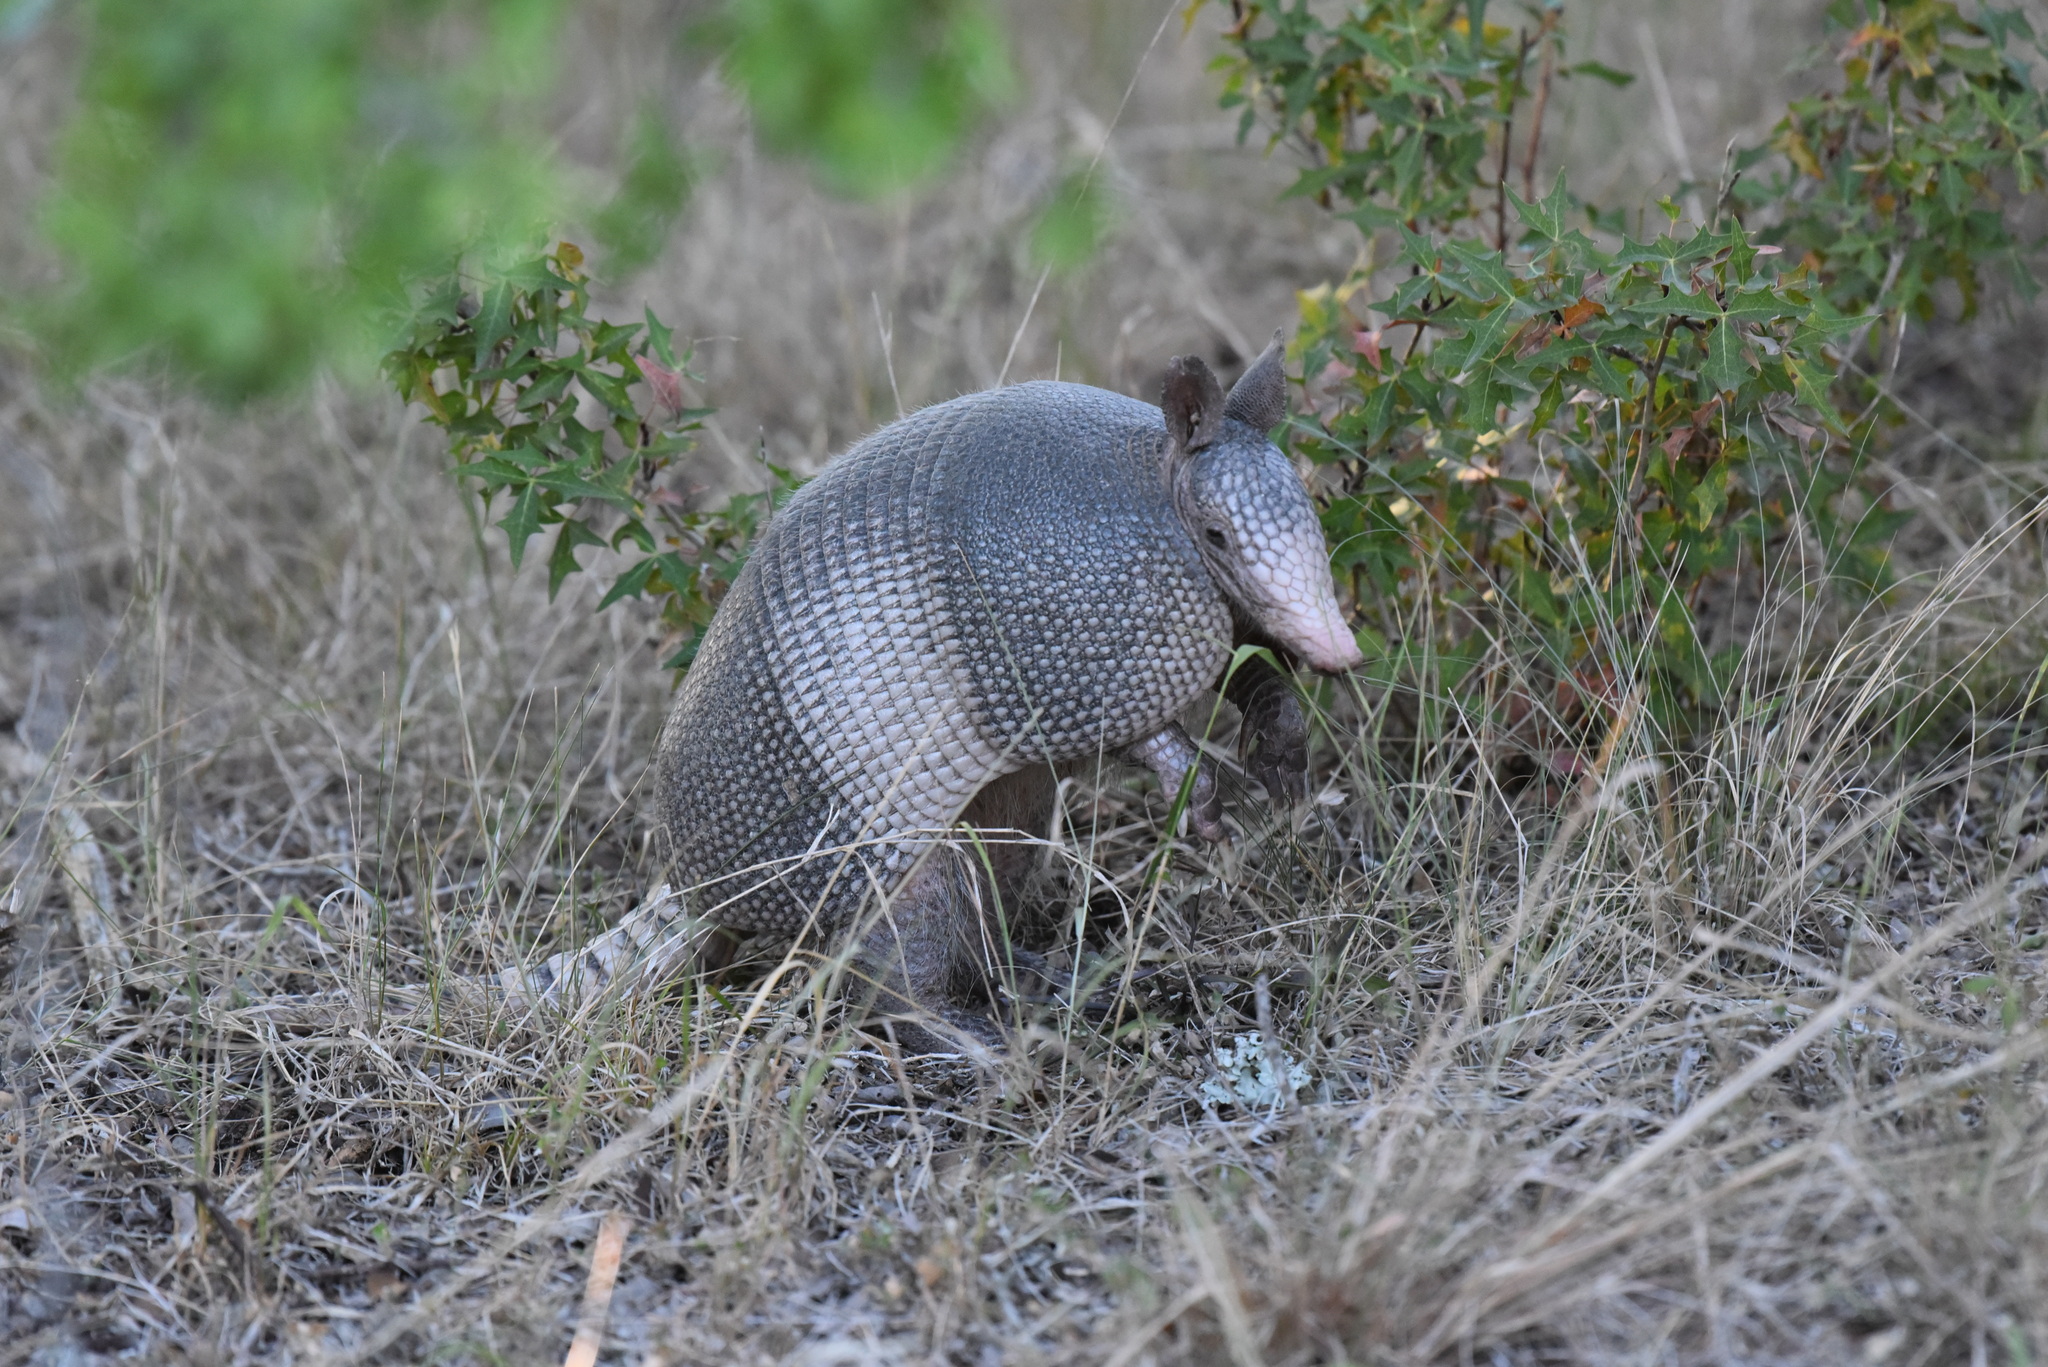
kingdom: Animalia
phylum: Chordata
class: Mammalia
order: Cingulata
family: Dasypodidae
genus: Dasypus
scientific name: Dasypus novemcinctus
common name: Nine-banded armadillo
